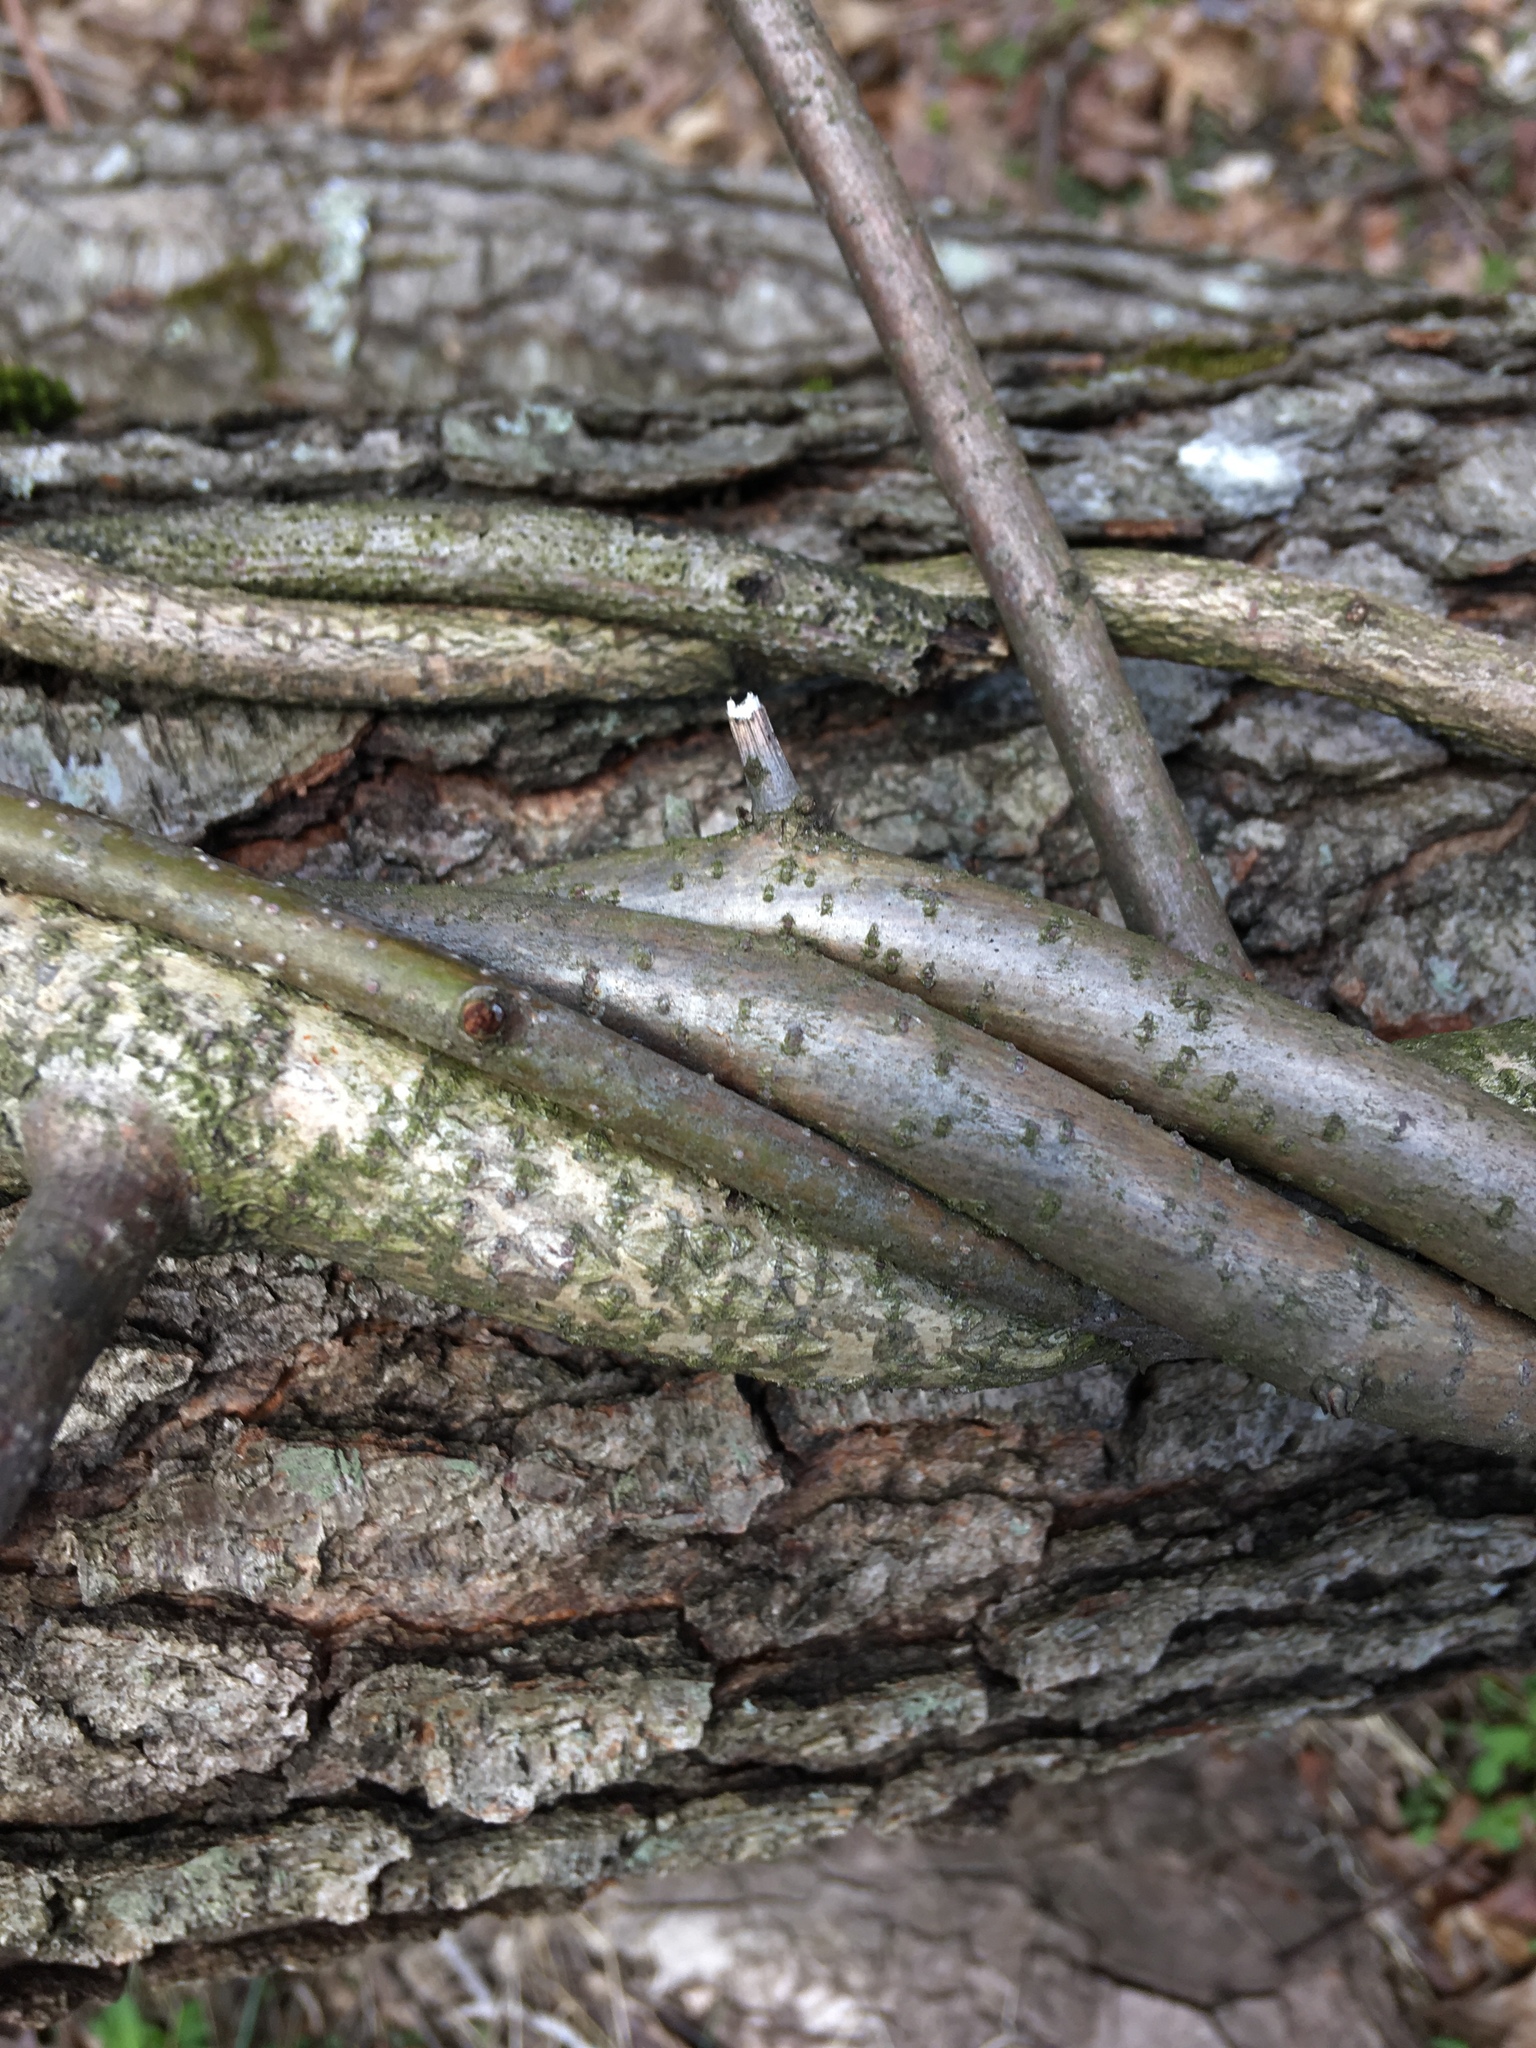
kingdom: Plantae
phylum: Tracheophyta
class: Magnoliopsida
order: Celastrales
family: Celastraceae
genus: Celastrus
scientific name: Celastrus orbiculatus
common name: Oriental bittersweet
